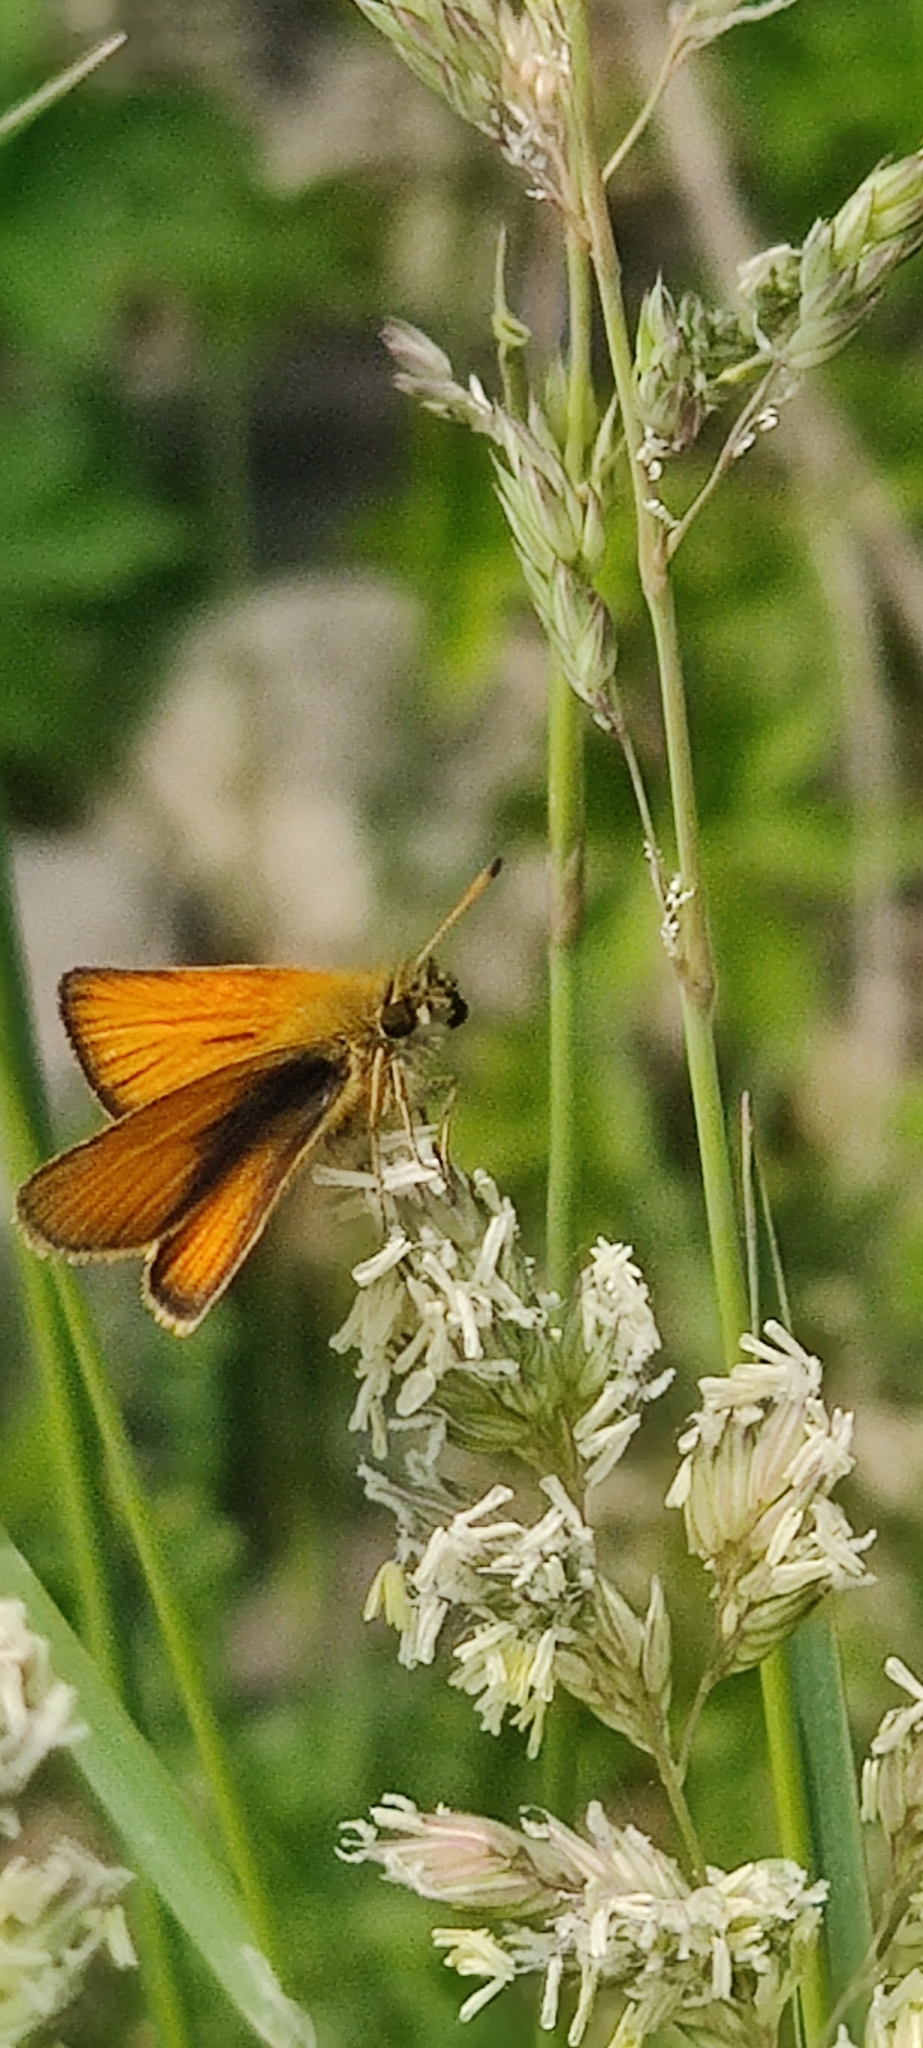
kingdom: Animalia
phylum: Arthropoda
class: Insecta
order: Lepidoptera
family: Hesperiidae
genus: Thymelicus
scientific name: Thymelicus lineola
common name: Essex skipper
